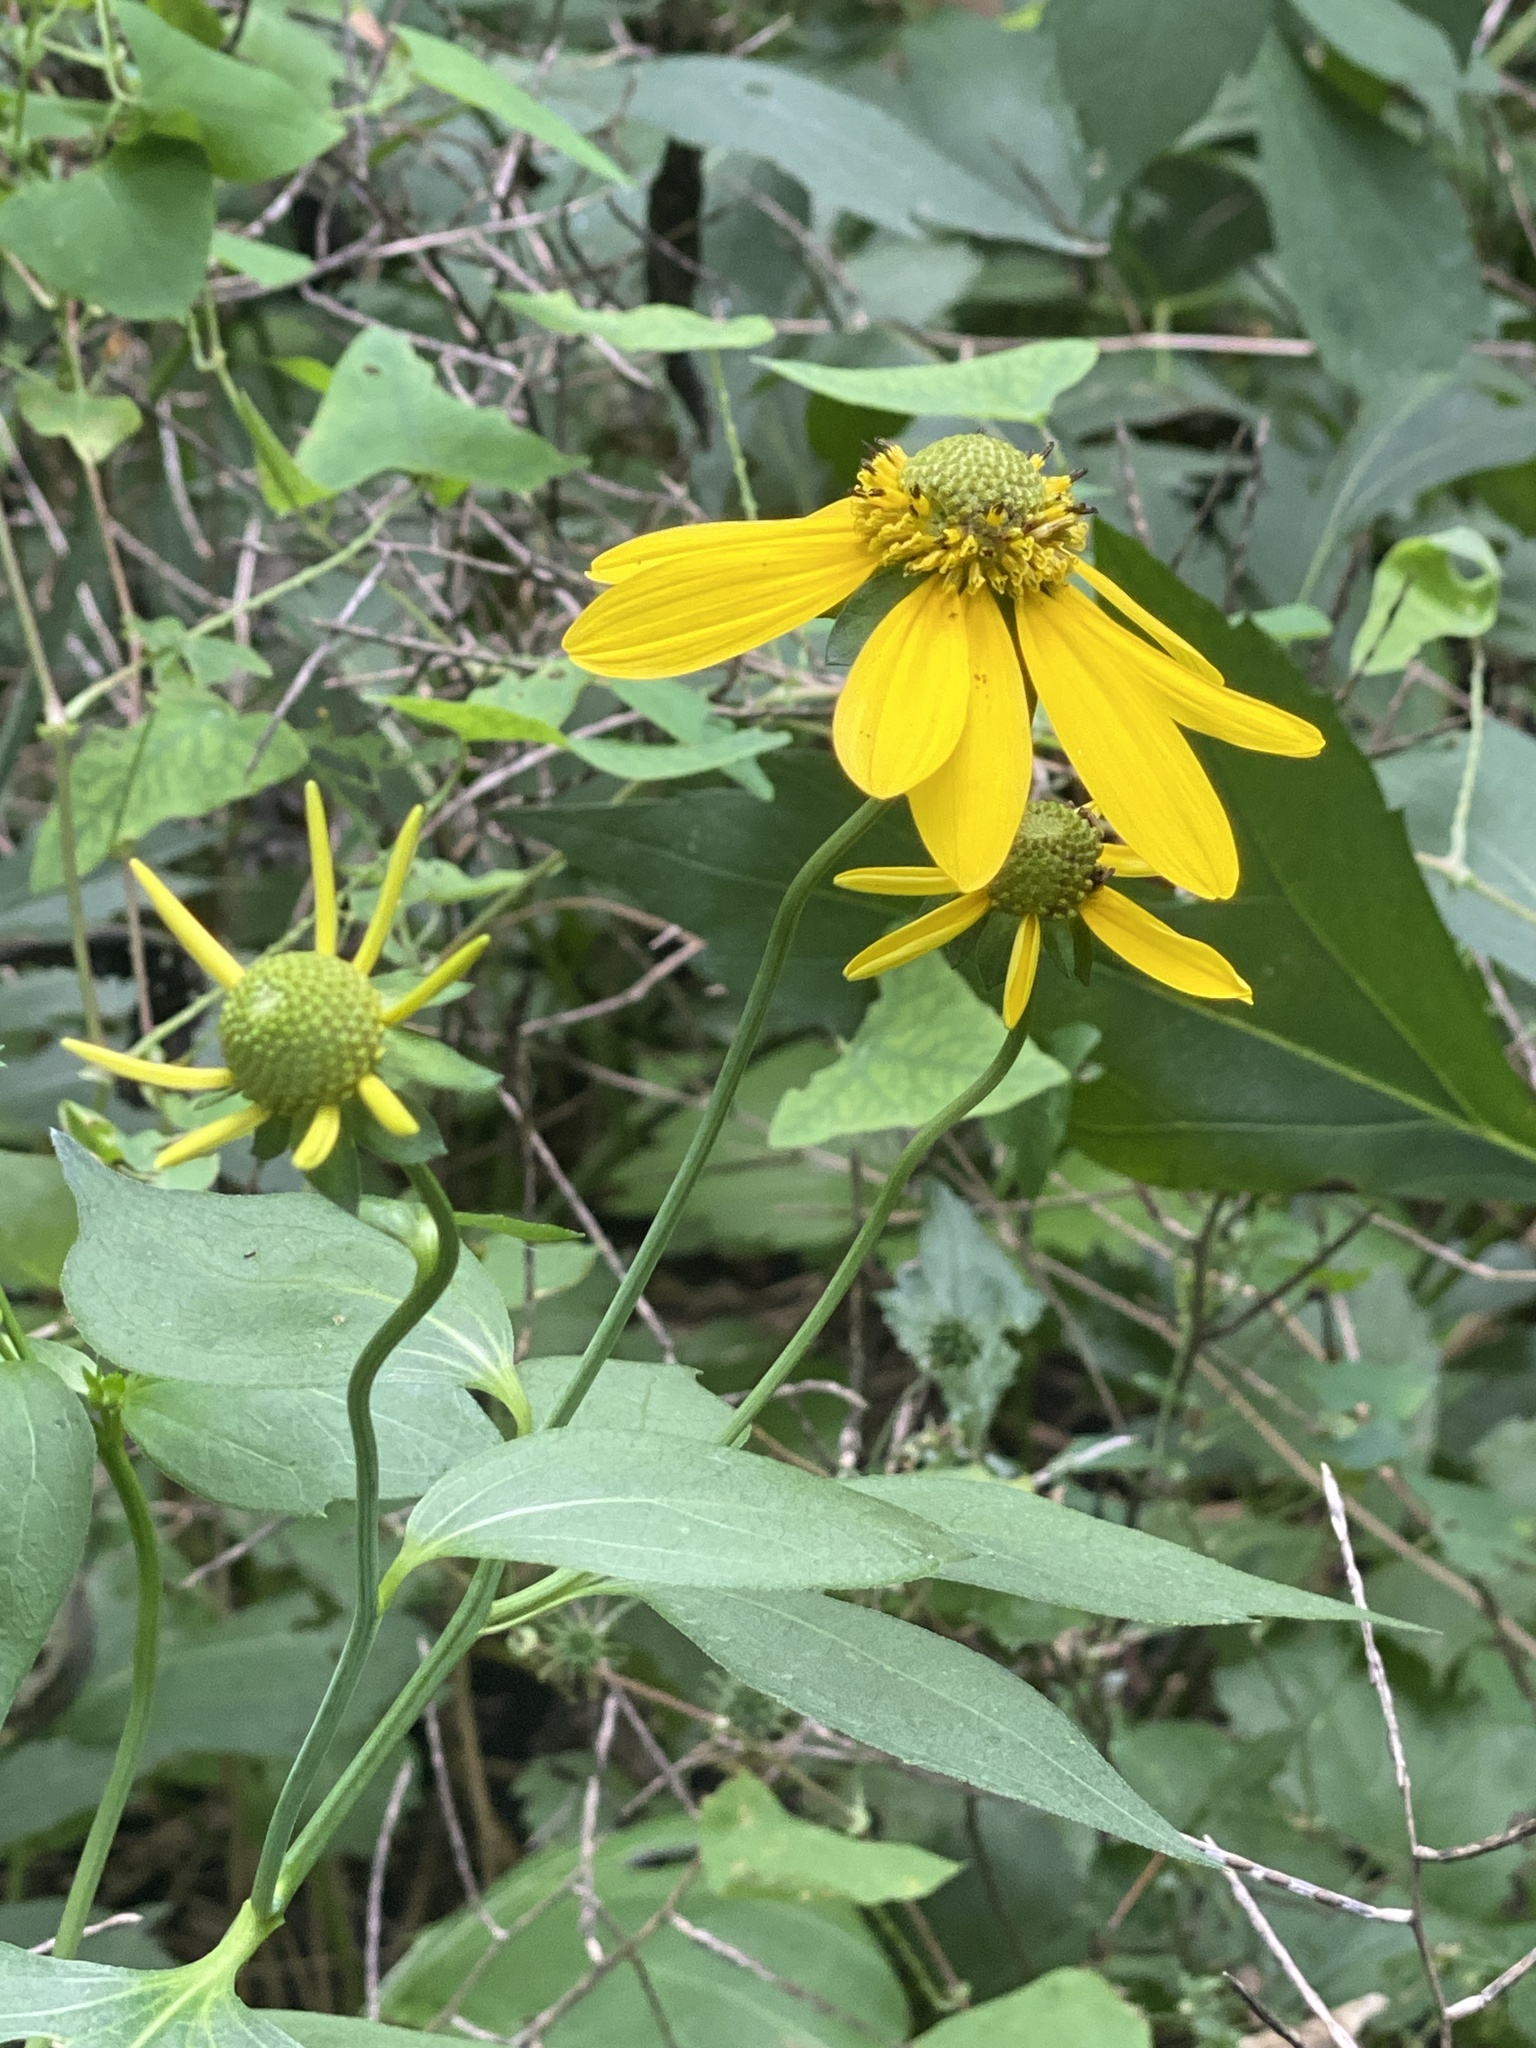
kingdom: Plantae
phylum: Tracheophyta
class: Magnoliopsida
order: Asterales
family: Asteraceae
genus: Rudbeckia
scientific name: Rudbeckia laciniata
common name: Coneflower
